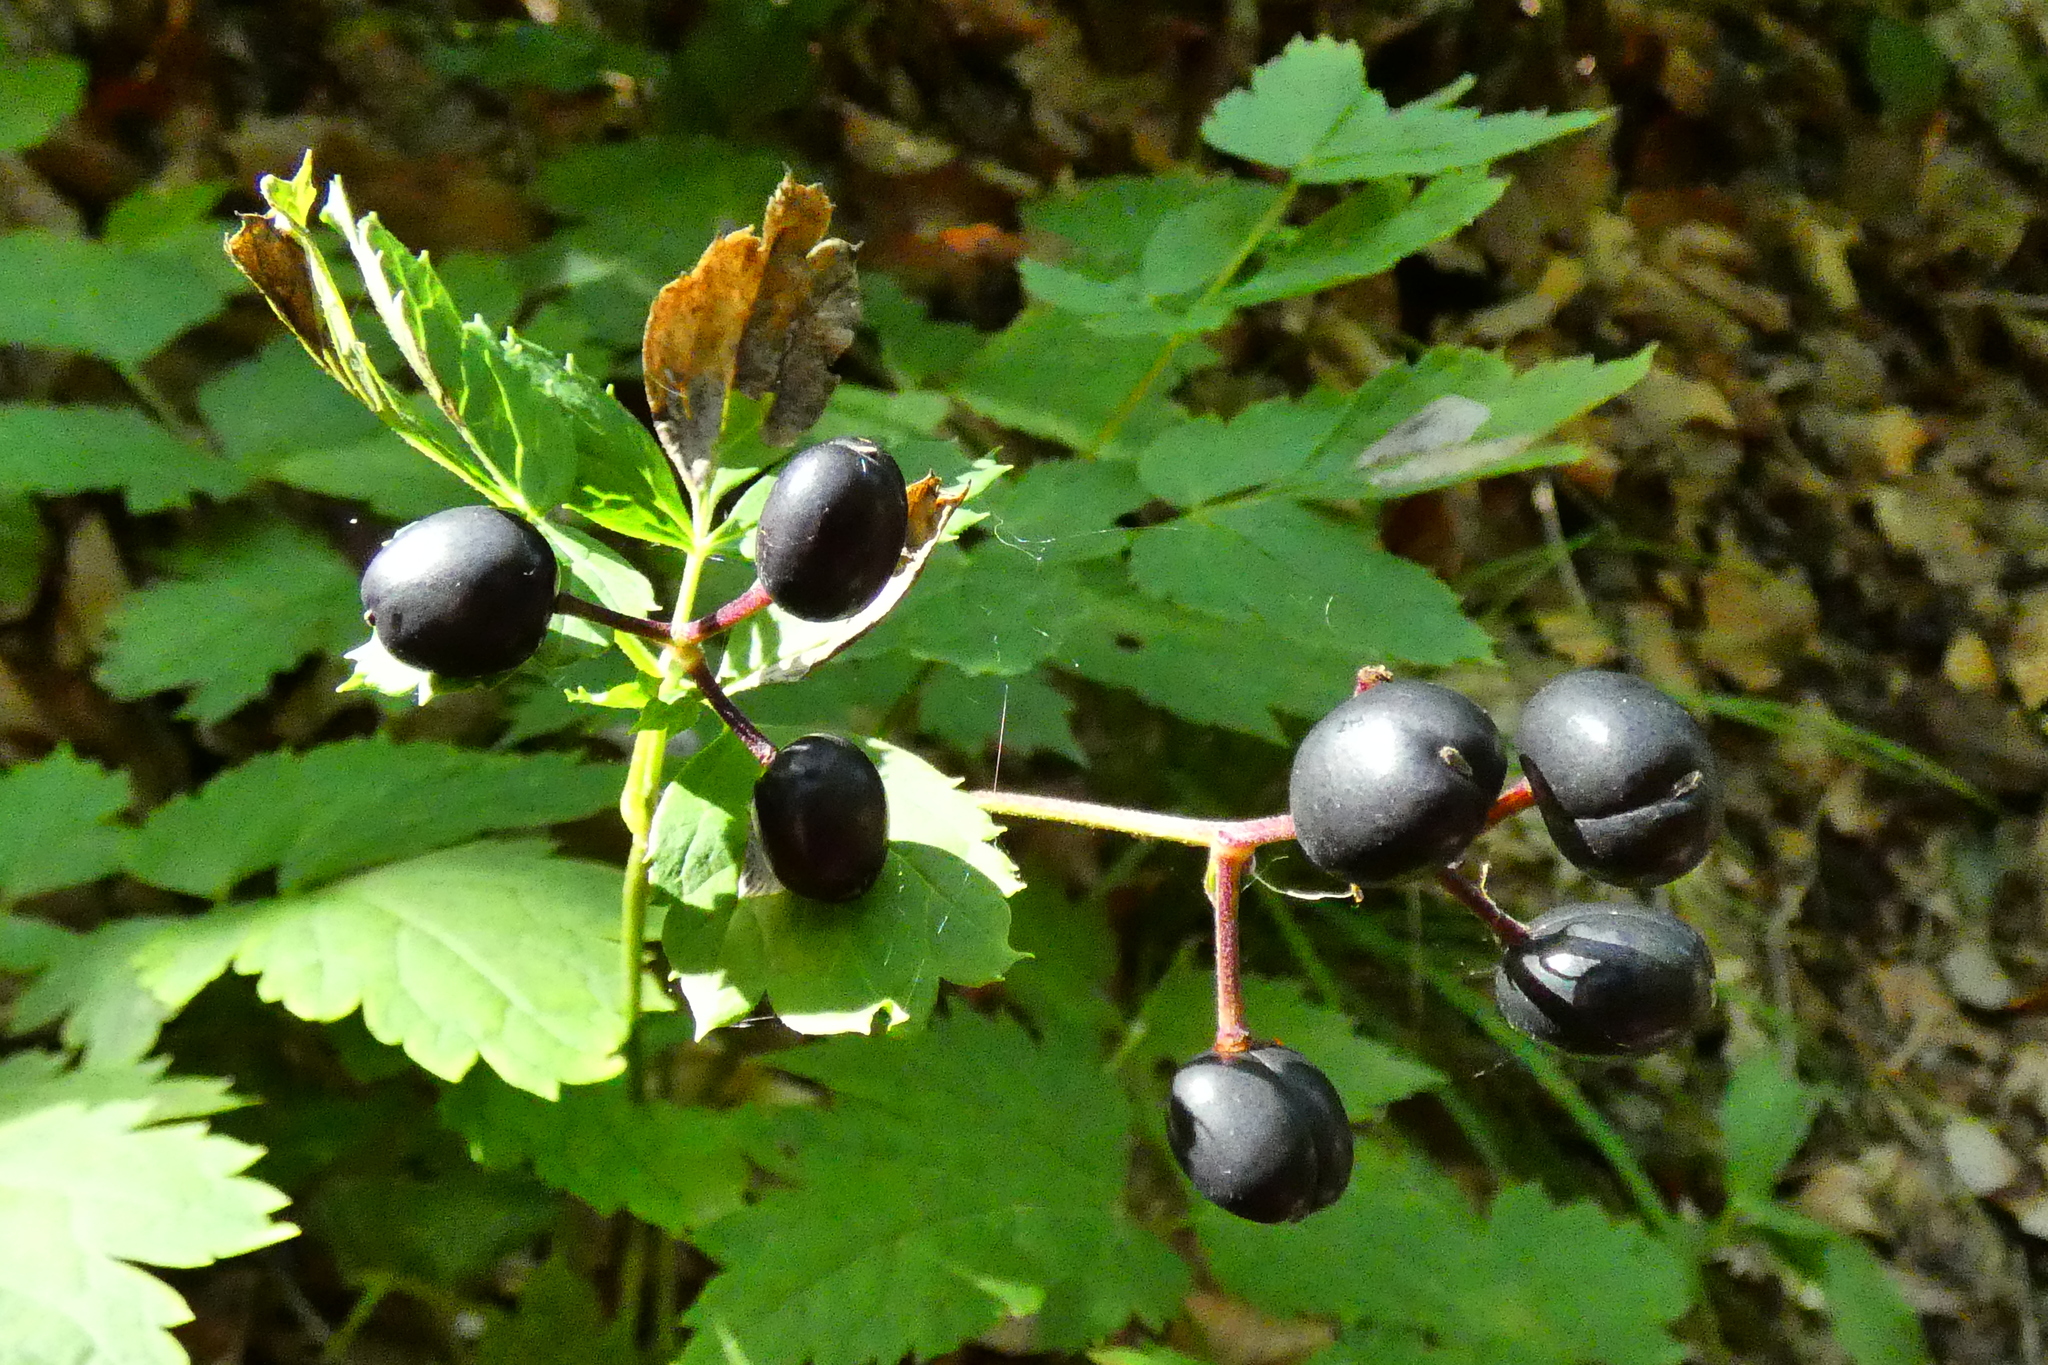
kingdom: Plantae
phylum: Tracheophyta
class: Magnoliopsida
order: Ranunculales
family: Ranunculaceae
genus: Actaea
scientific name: Actaea spicata
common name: Baneberry
